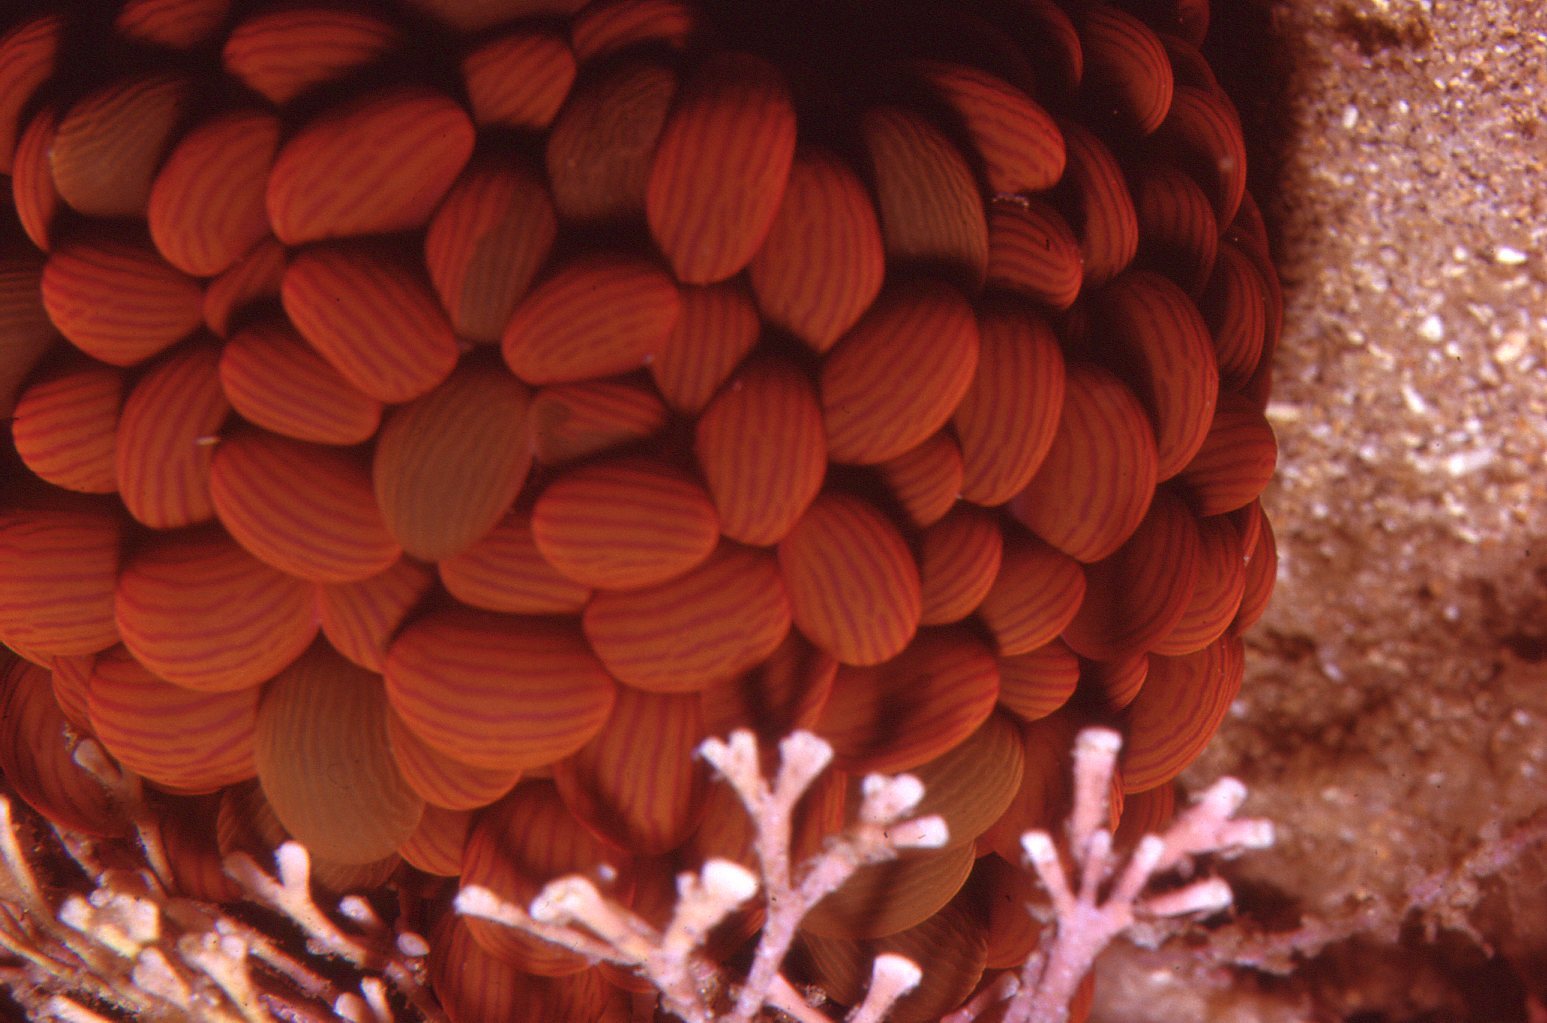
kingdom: Animalia
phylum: Cnidaria
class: Anthozoa
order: Actiniaria
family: Actiniidae
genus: Phlyctenactis
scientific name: Phlyctenactis tuberculosa
